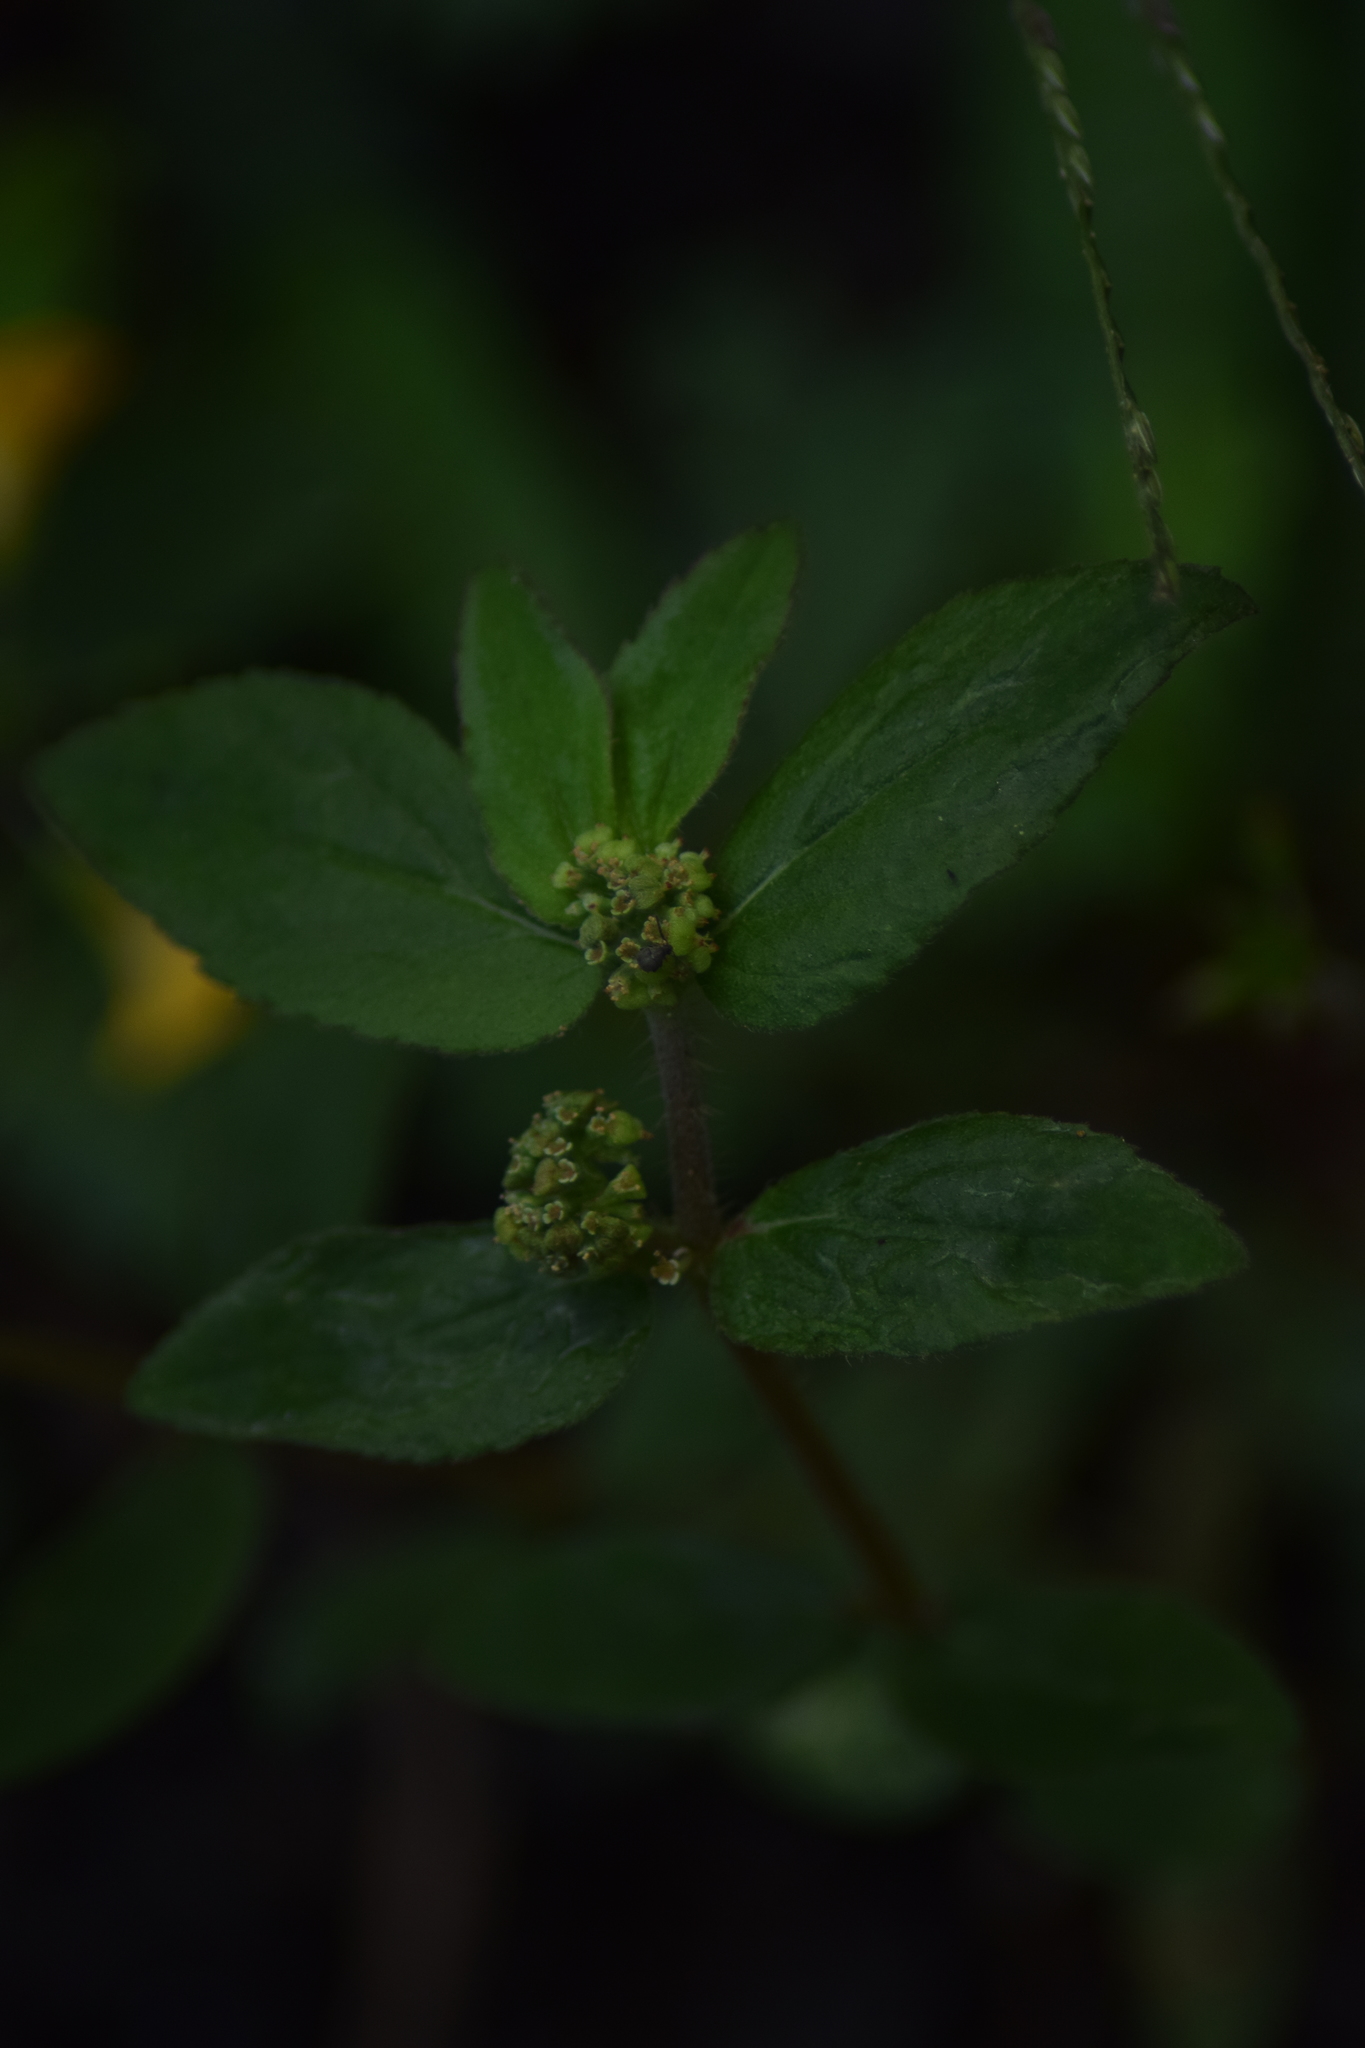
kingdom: Plantae
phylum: Tracheophyta
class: Magnoliopsida
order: Malpighiales
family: Euphorbiaceae
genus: Euphorbia
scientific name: Euphorbia hirta
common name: Pillpod sandmat
